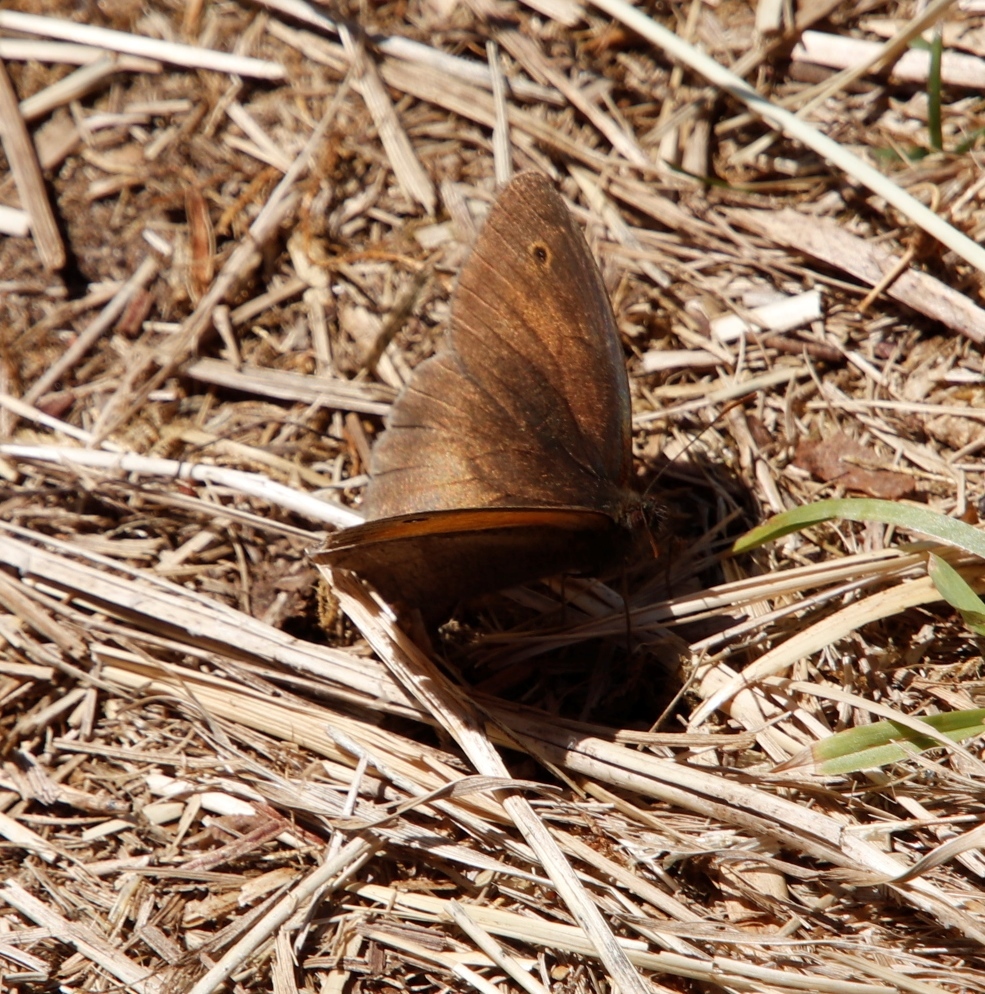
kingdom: Animalia
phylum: Arthropoda
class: Insecta
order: Lepidoptera
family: Nymphalidae
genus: Maniola
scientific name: Maniola jurtina
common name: Meadow brown
